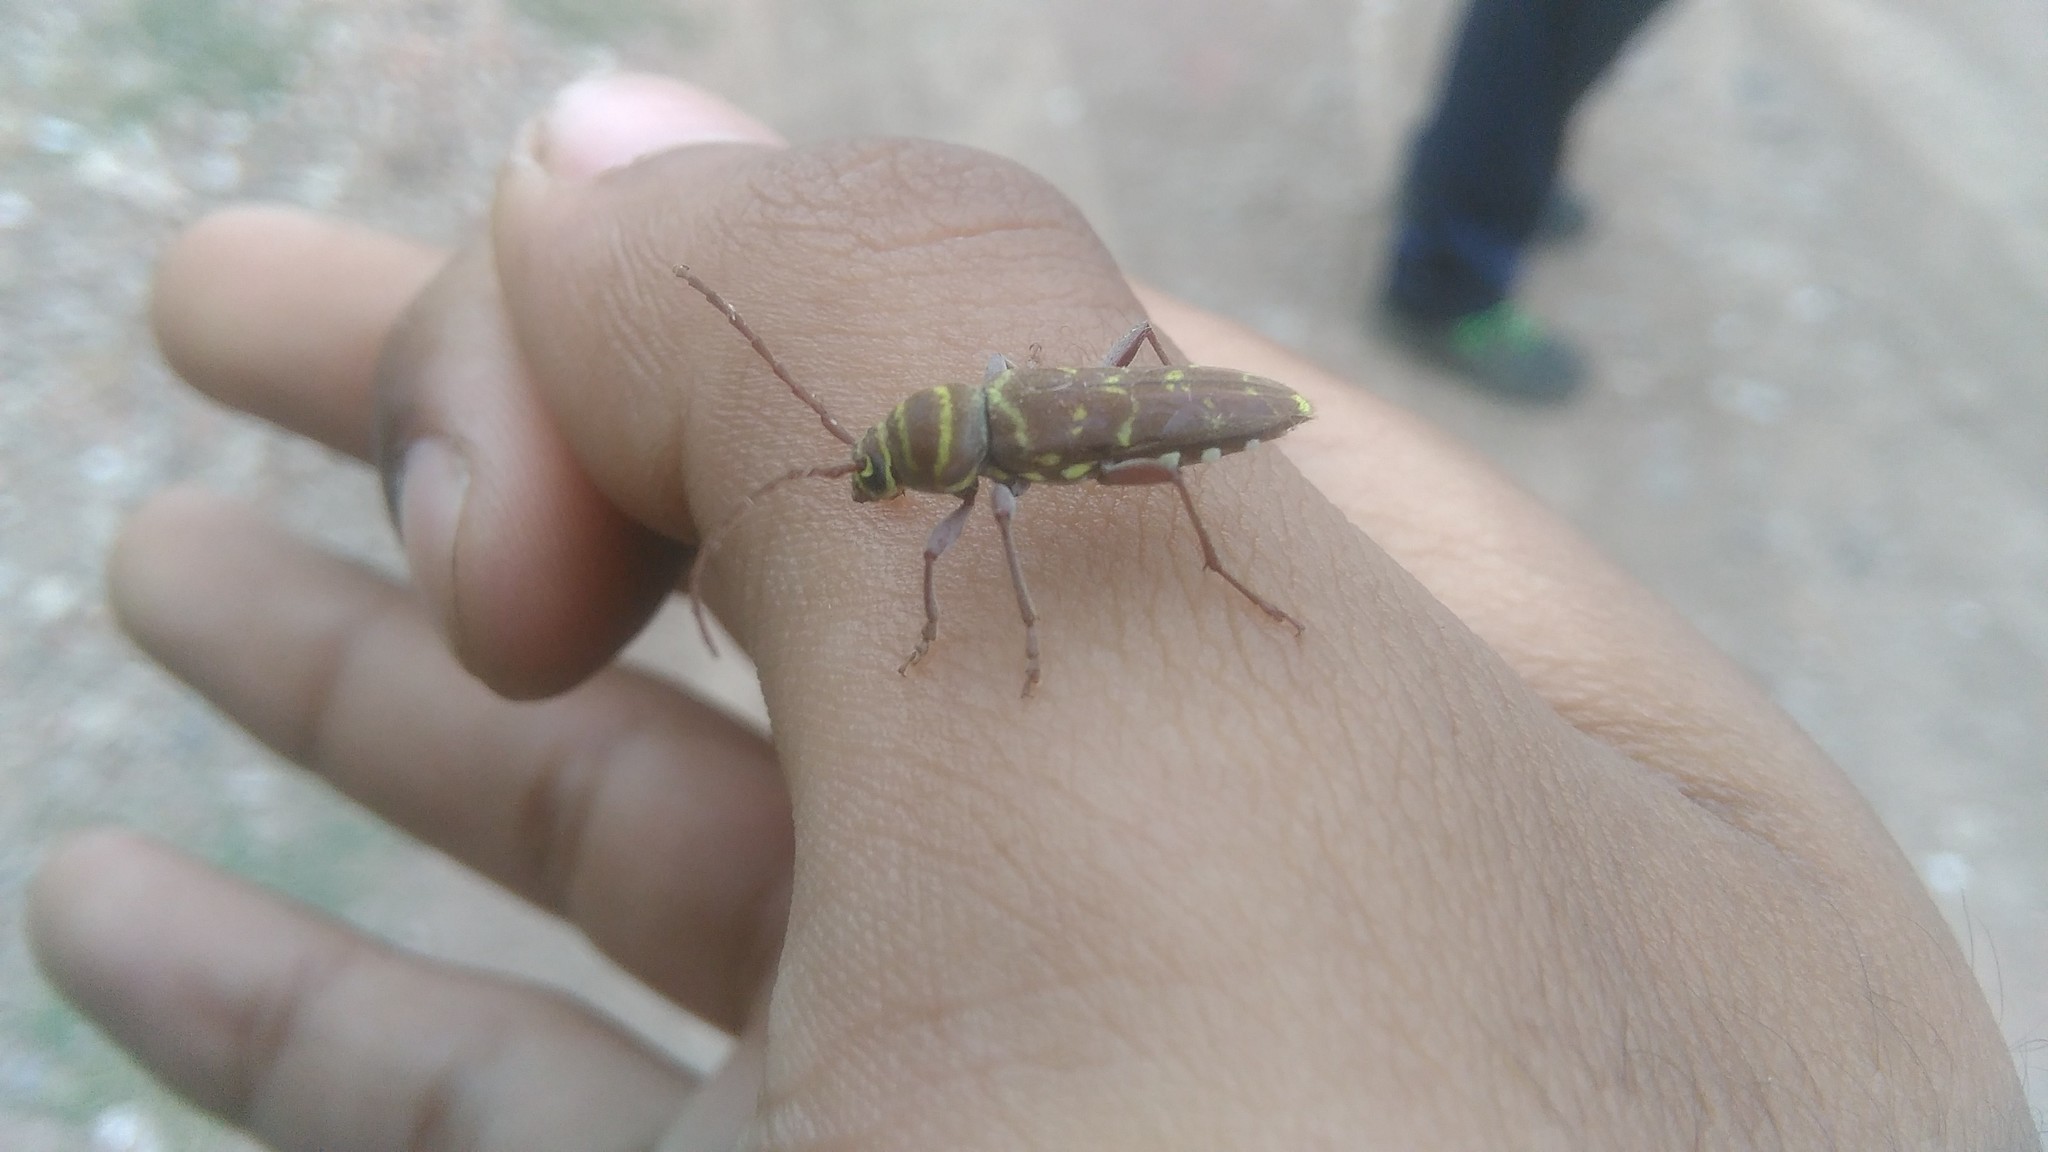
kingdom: Animalia
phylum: Arthropoda
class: Insecta
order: Coleoptera
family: Cerambycidae
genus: Megacyllene
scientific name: Megacyllene castanea
